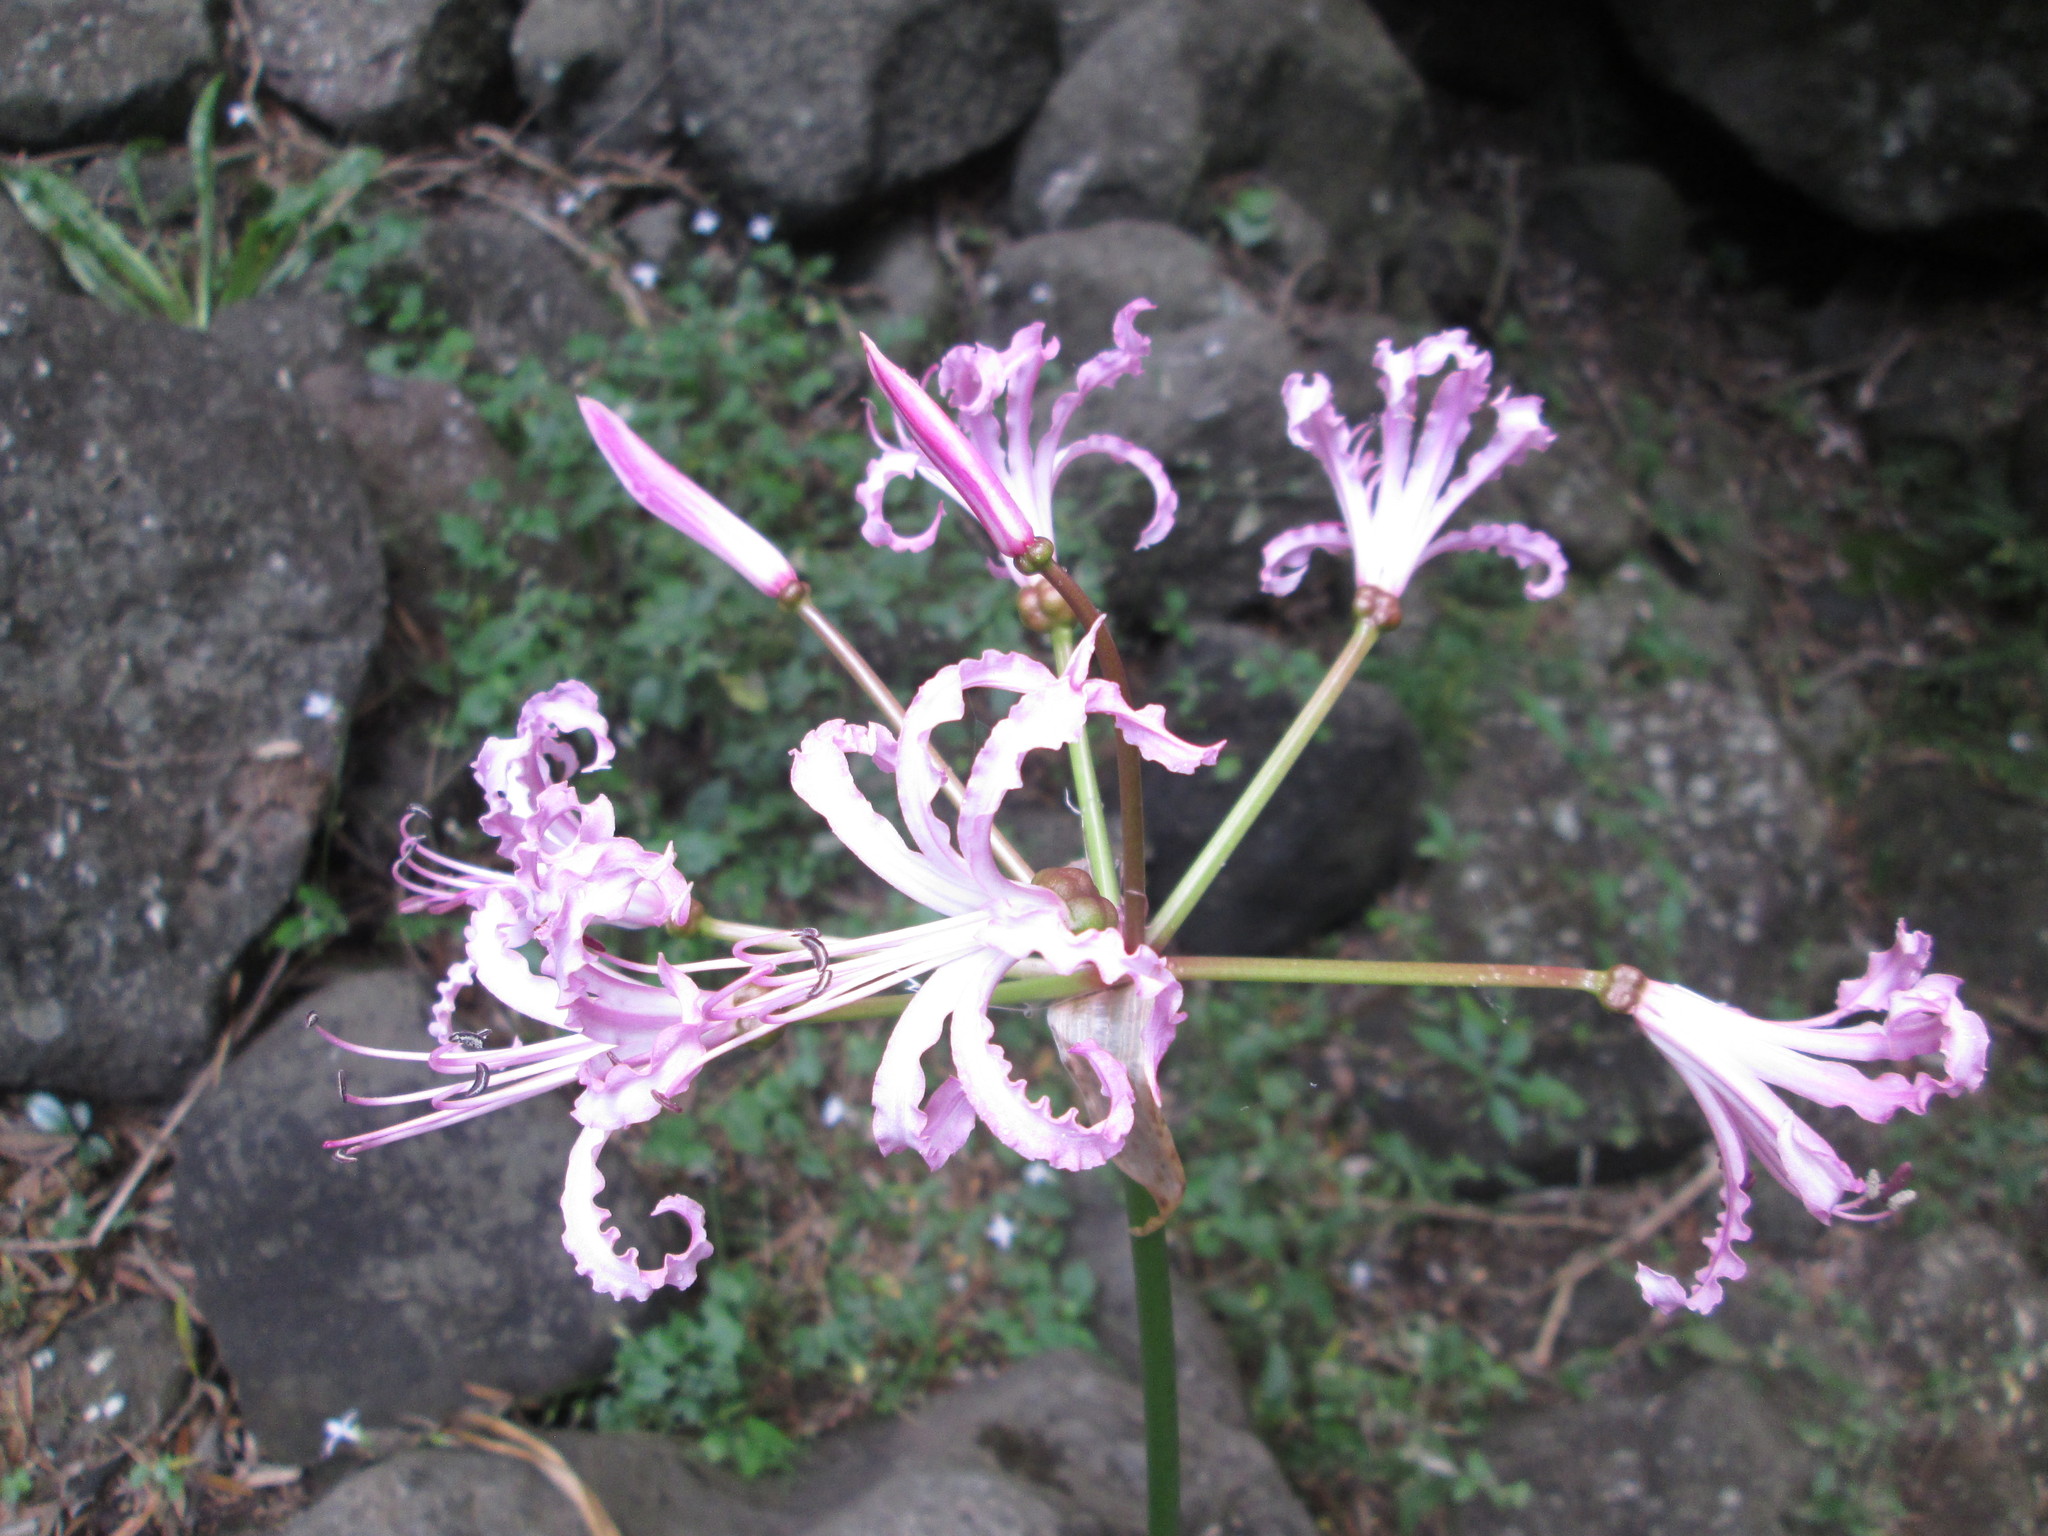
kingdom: Plantae
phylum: Tracheophyta
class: Liliopsida
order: Asparagales
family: Amaryllidaceae
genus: Nerine
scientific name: Nerine bowdenii
